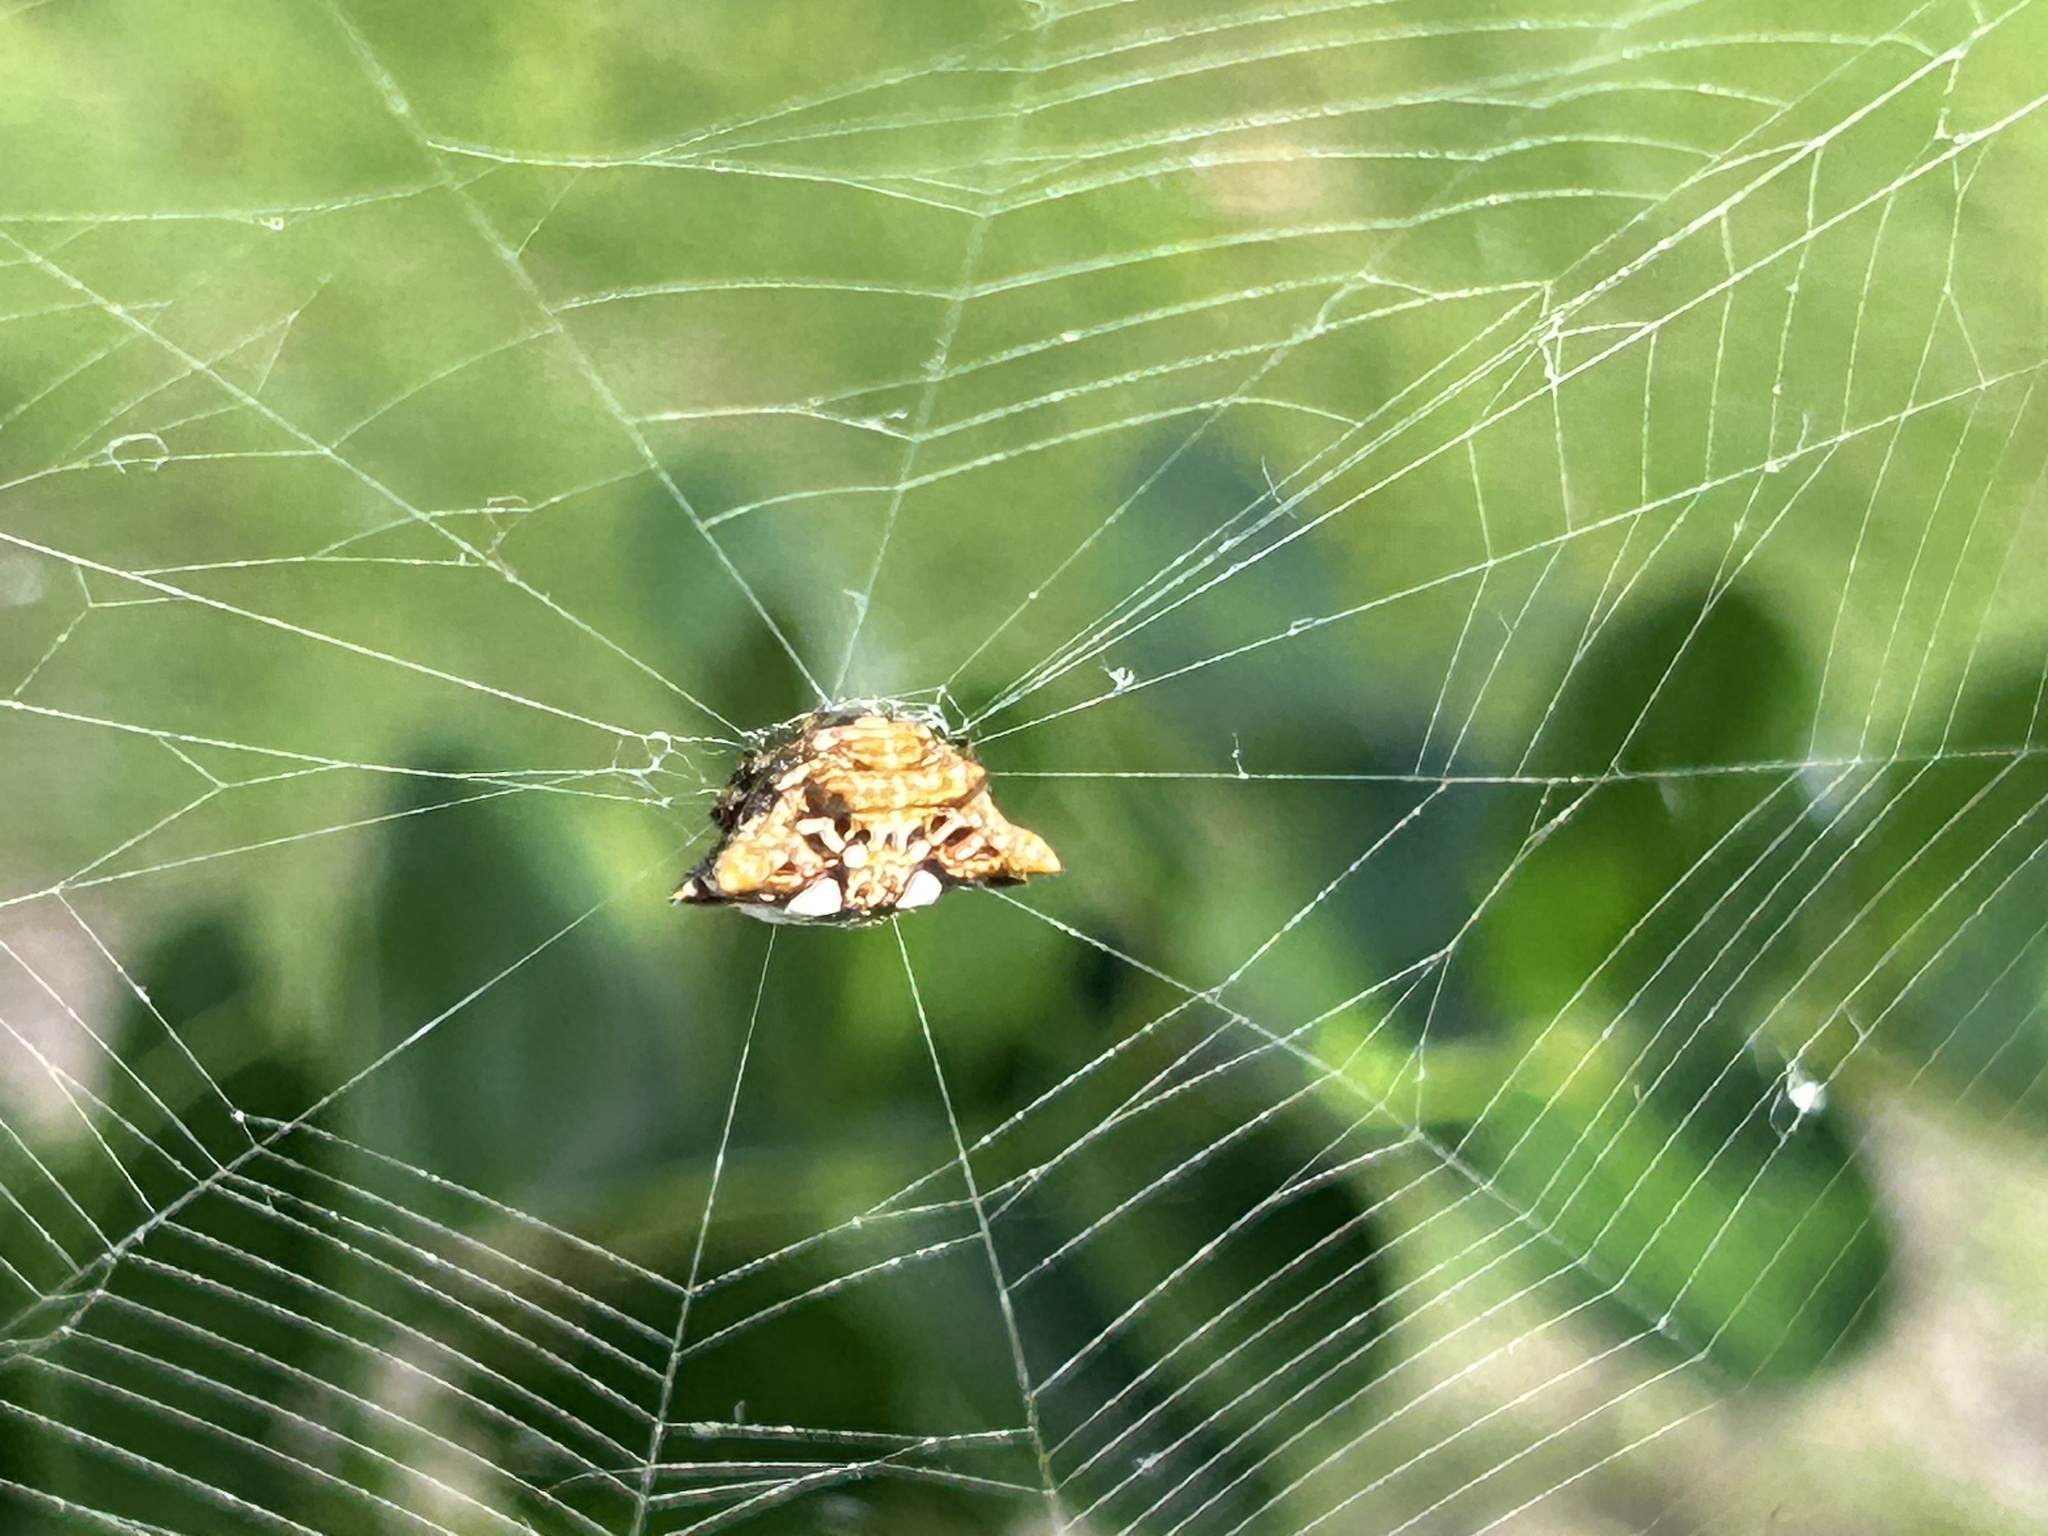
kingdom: Animalia
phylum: Arthropoda
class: Arachnida
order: Araneae
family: Araneidae
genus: Thelacantha
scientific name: Thelacantha brevispina
